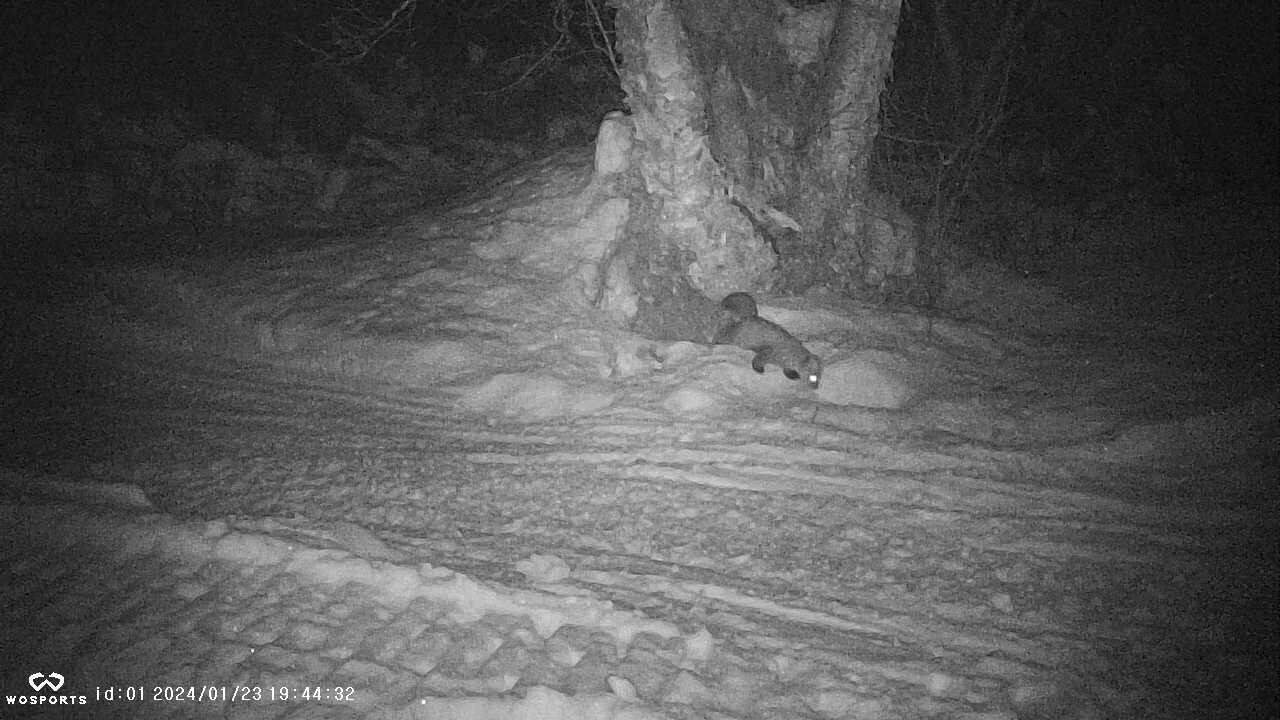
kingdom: Animalia
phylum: Chordata
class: Mammalia
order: Carnivora
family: Mustelidae
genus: Martes
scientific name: Martes americana
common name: American marten
